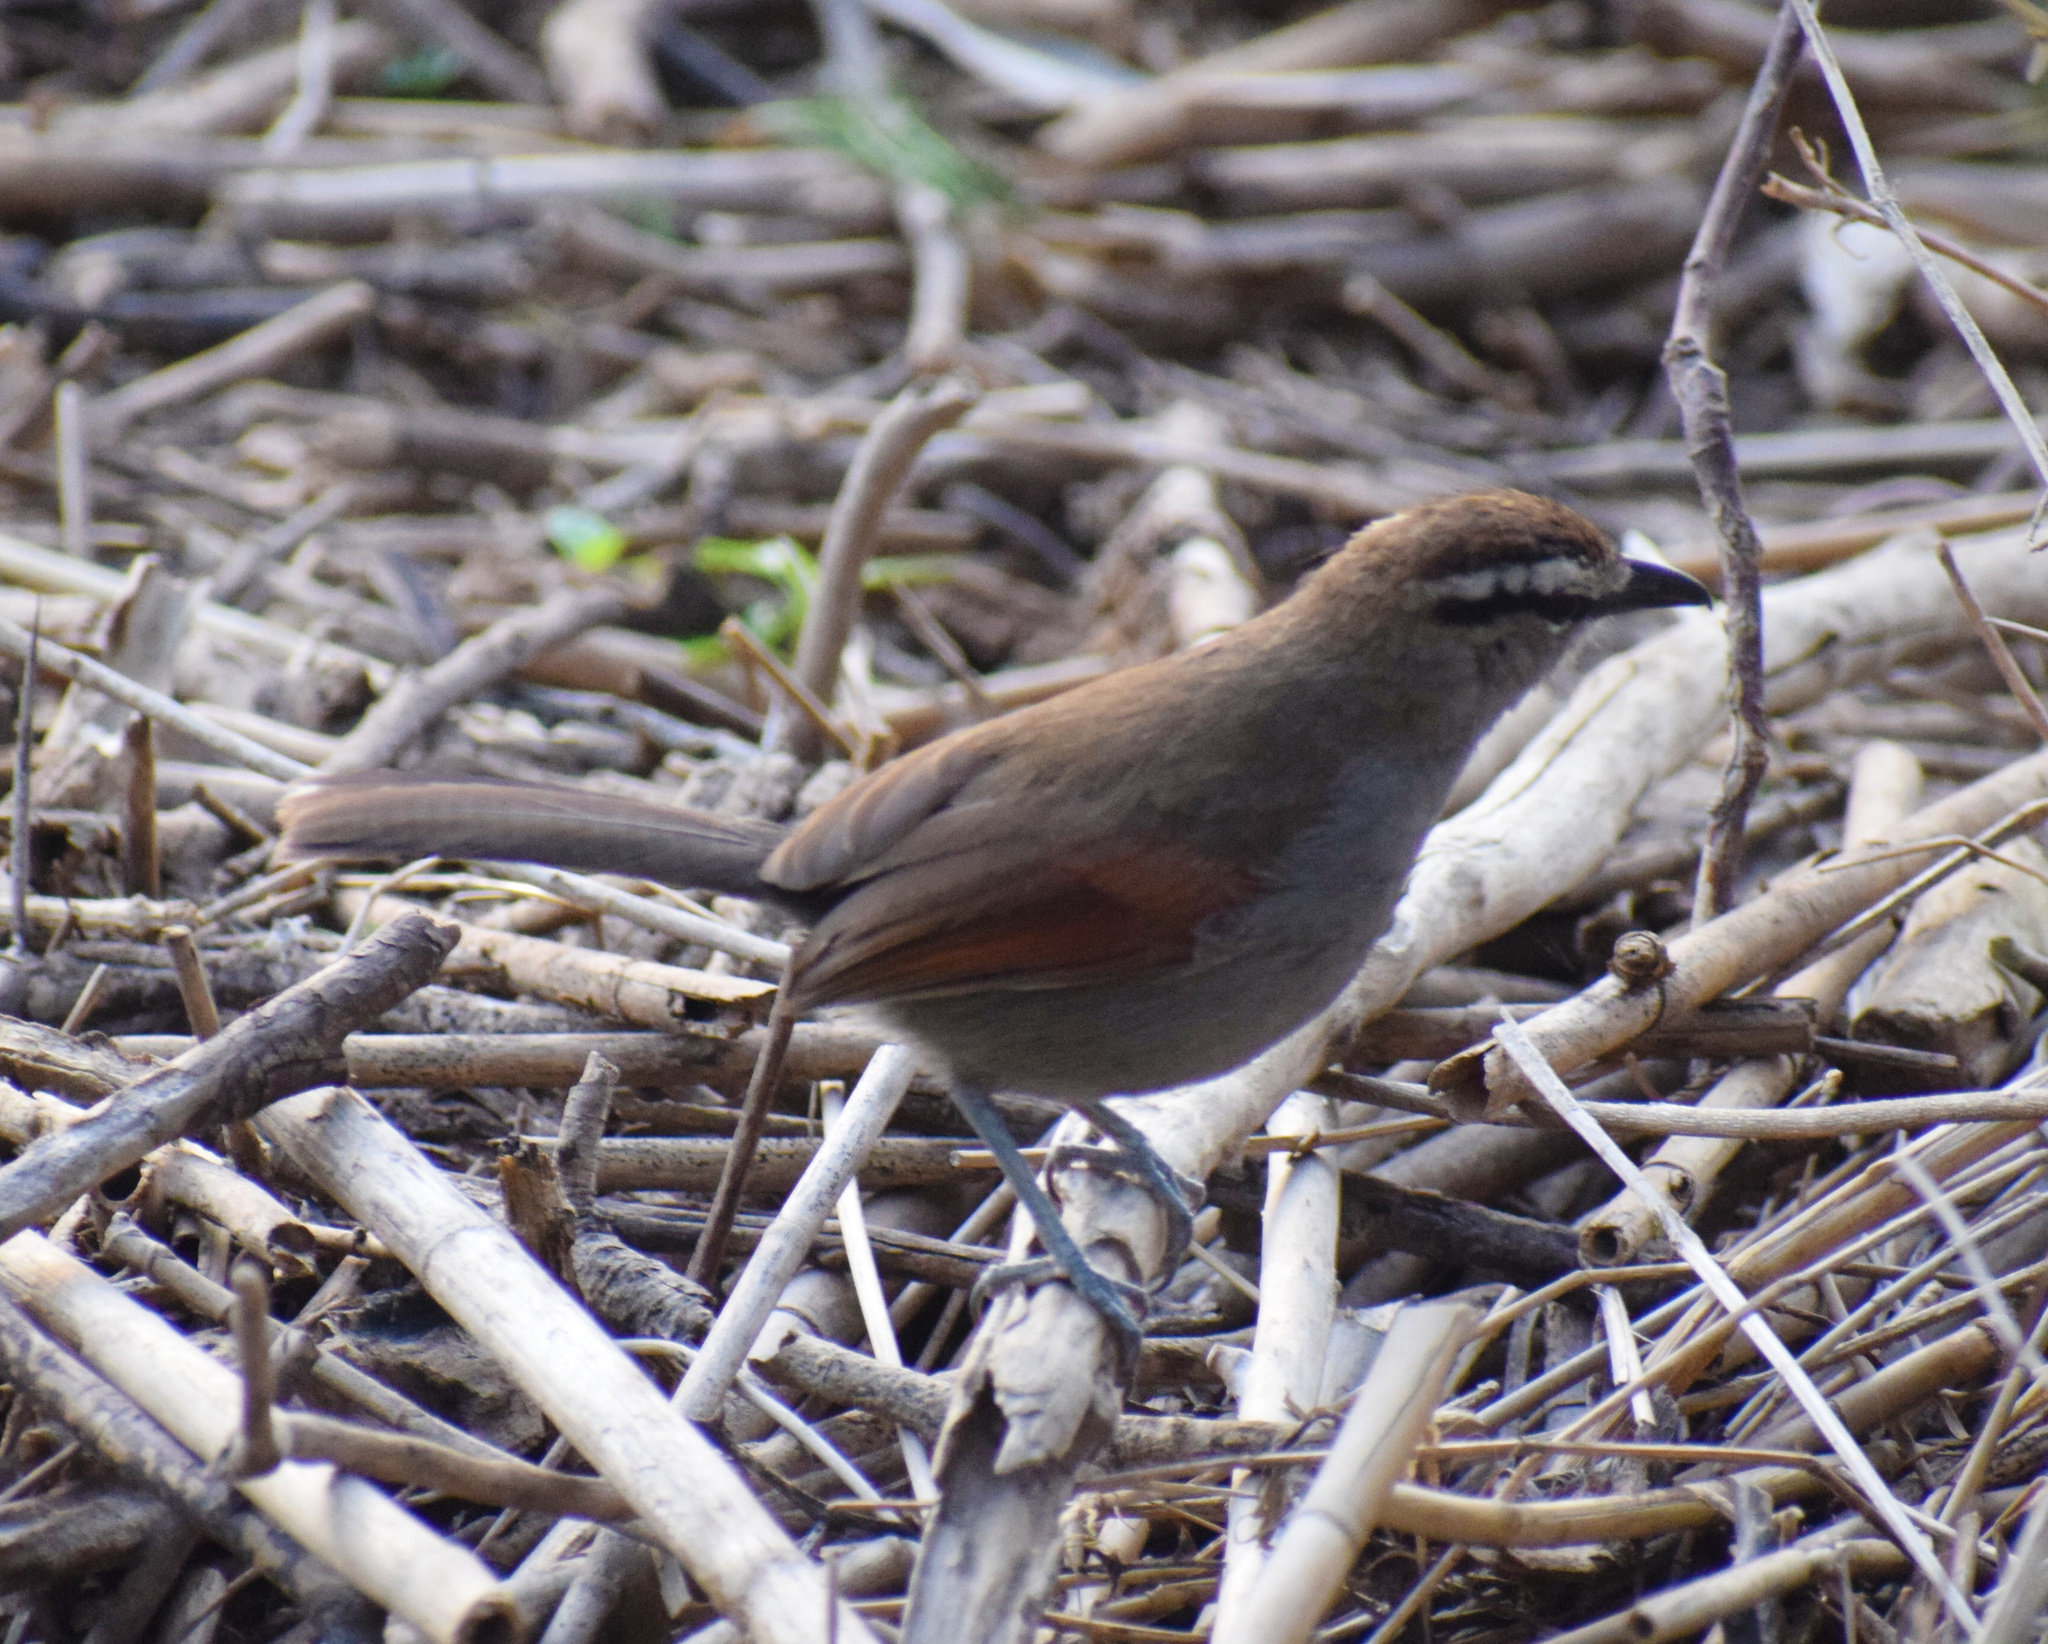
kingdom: Animalia
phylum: Chordata
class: Aves
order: Passeriformes
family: Malaconotidae
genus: Tchagra
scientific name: Tchagra australis
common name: Brown-crowned tchagra
